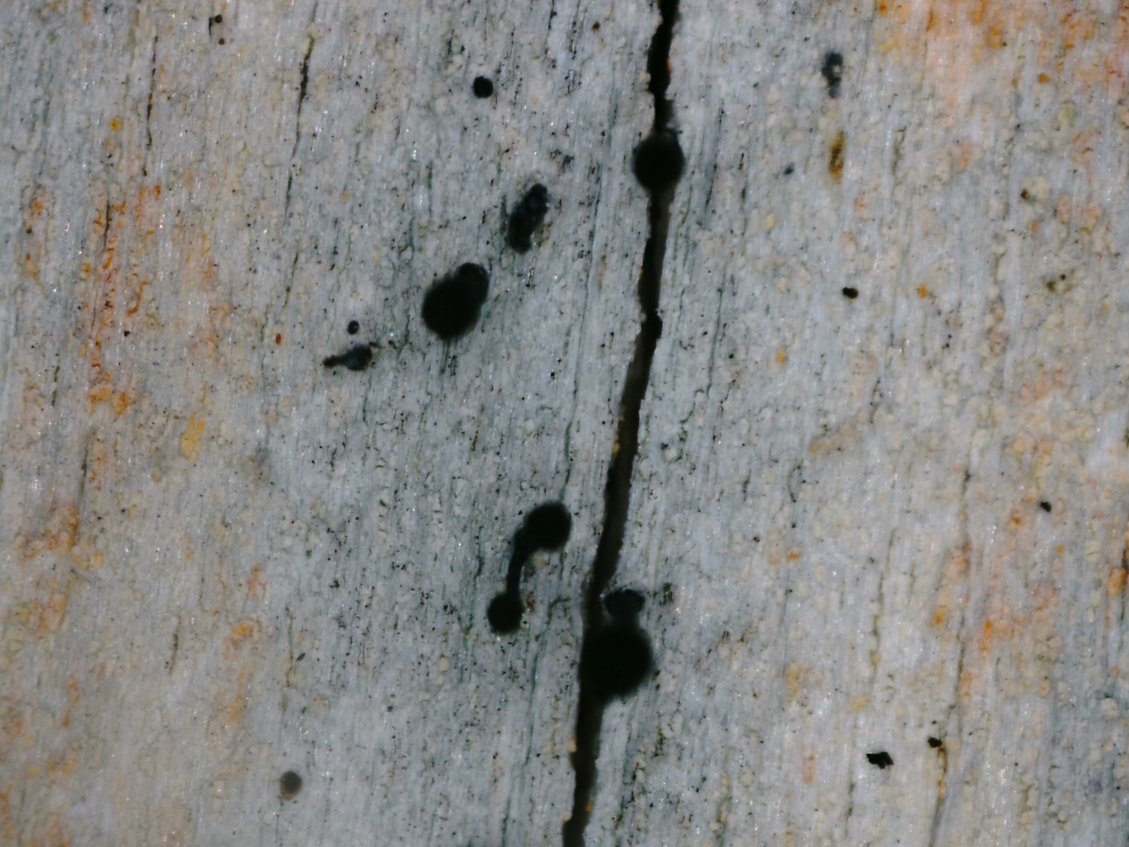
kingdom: Fungi
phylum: Ascomycota
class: Coniocybomycetes
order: Coniocybales
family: Coniocybaceae
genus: Chaenotheca
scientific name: Chaenotheca ferruginea
